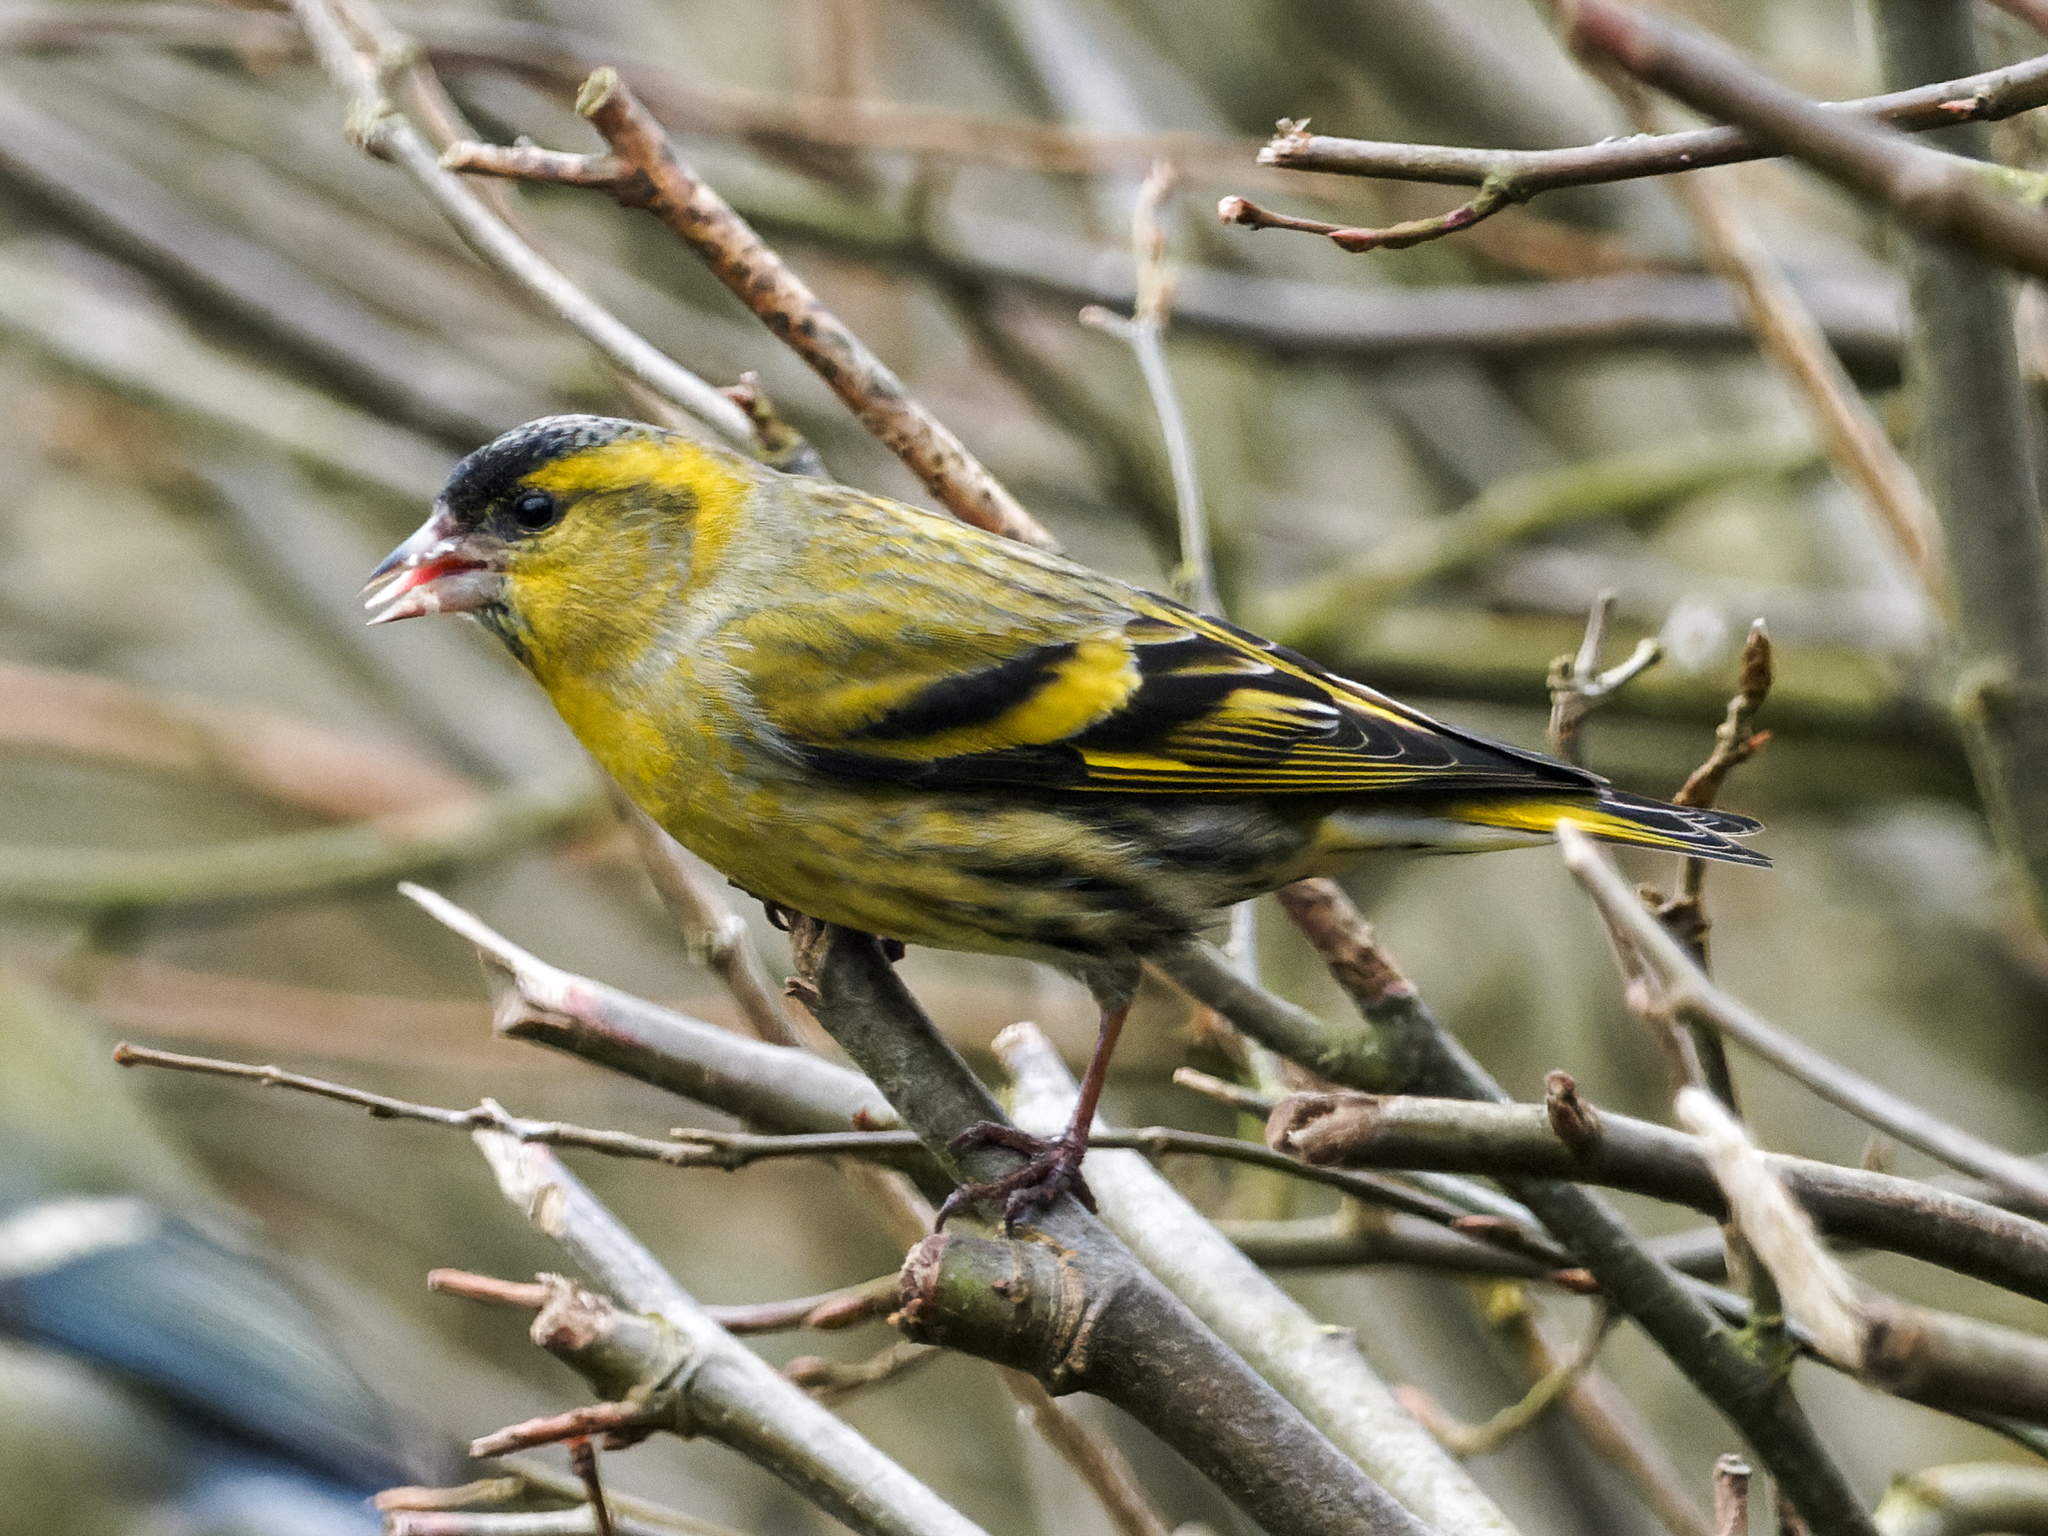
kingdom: Animalia
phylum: Chordata
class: Aves
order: Passeriformes
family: Fringillidae
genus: Spinus
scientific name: Spinus spinus
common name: Eurasian siskin
